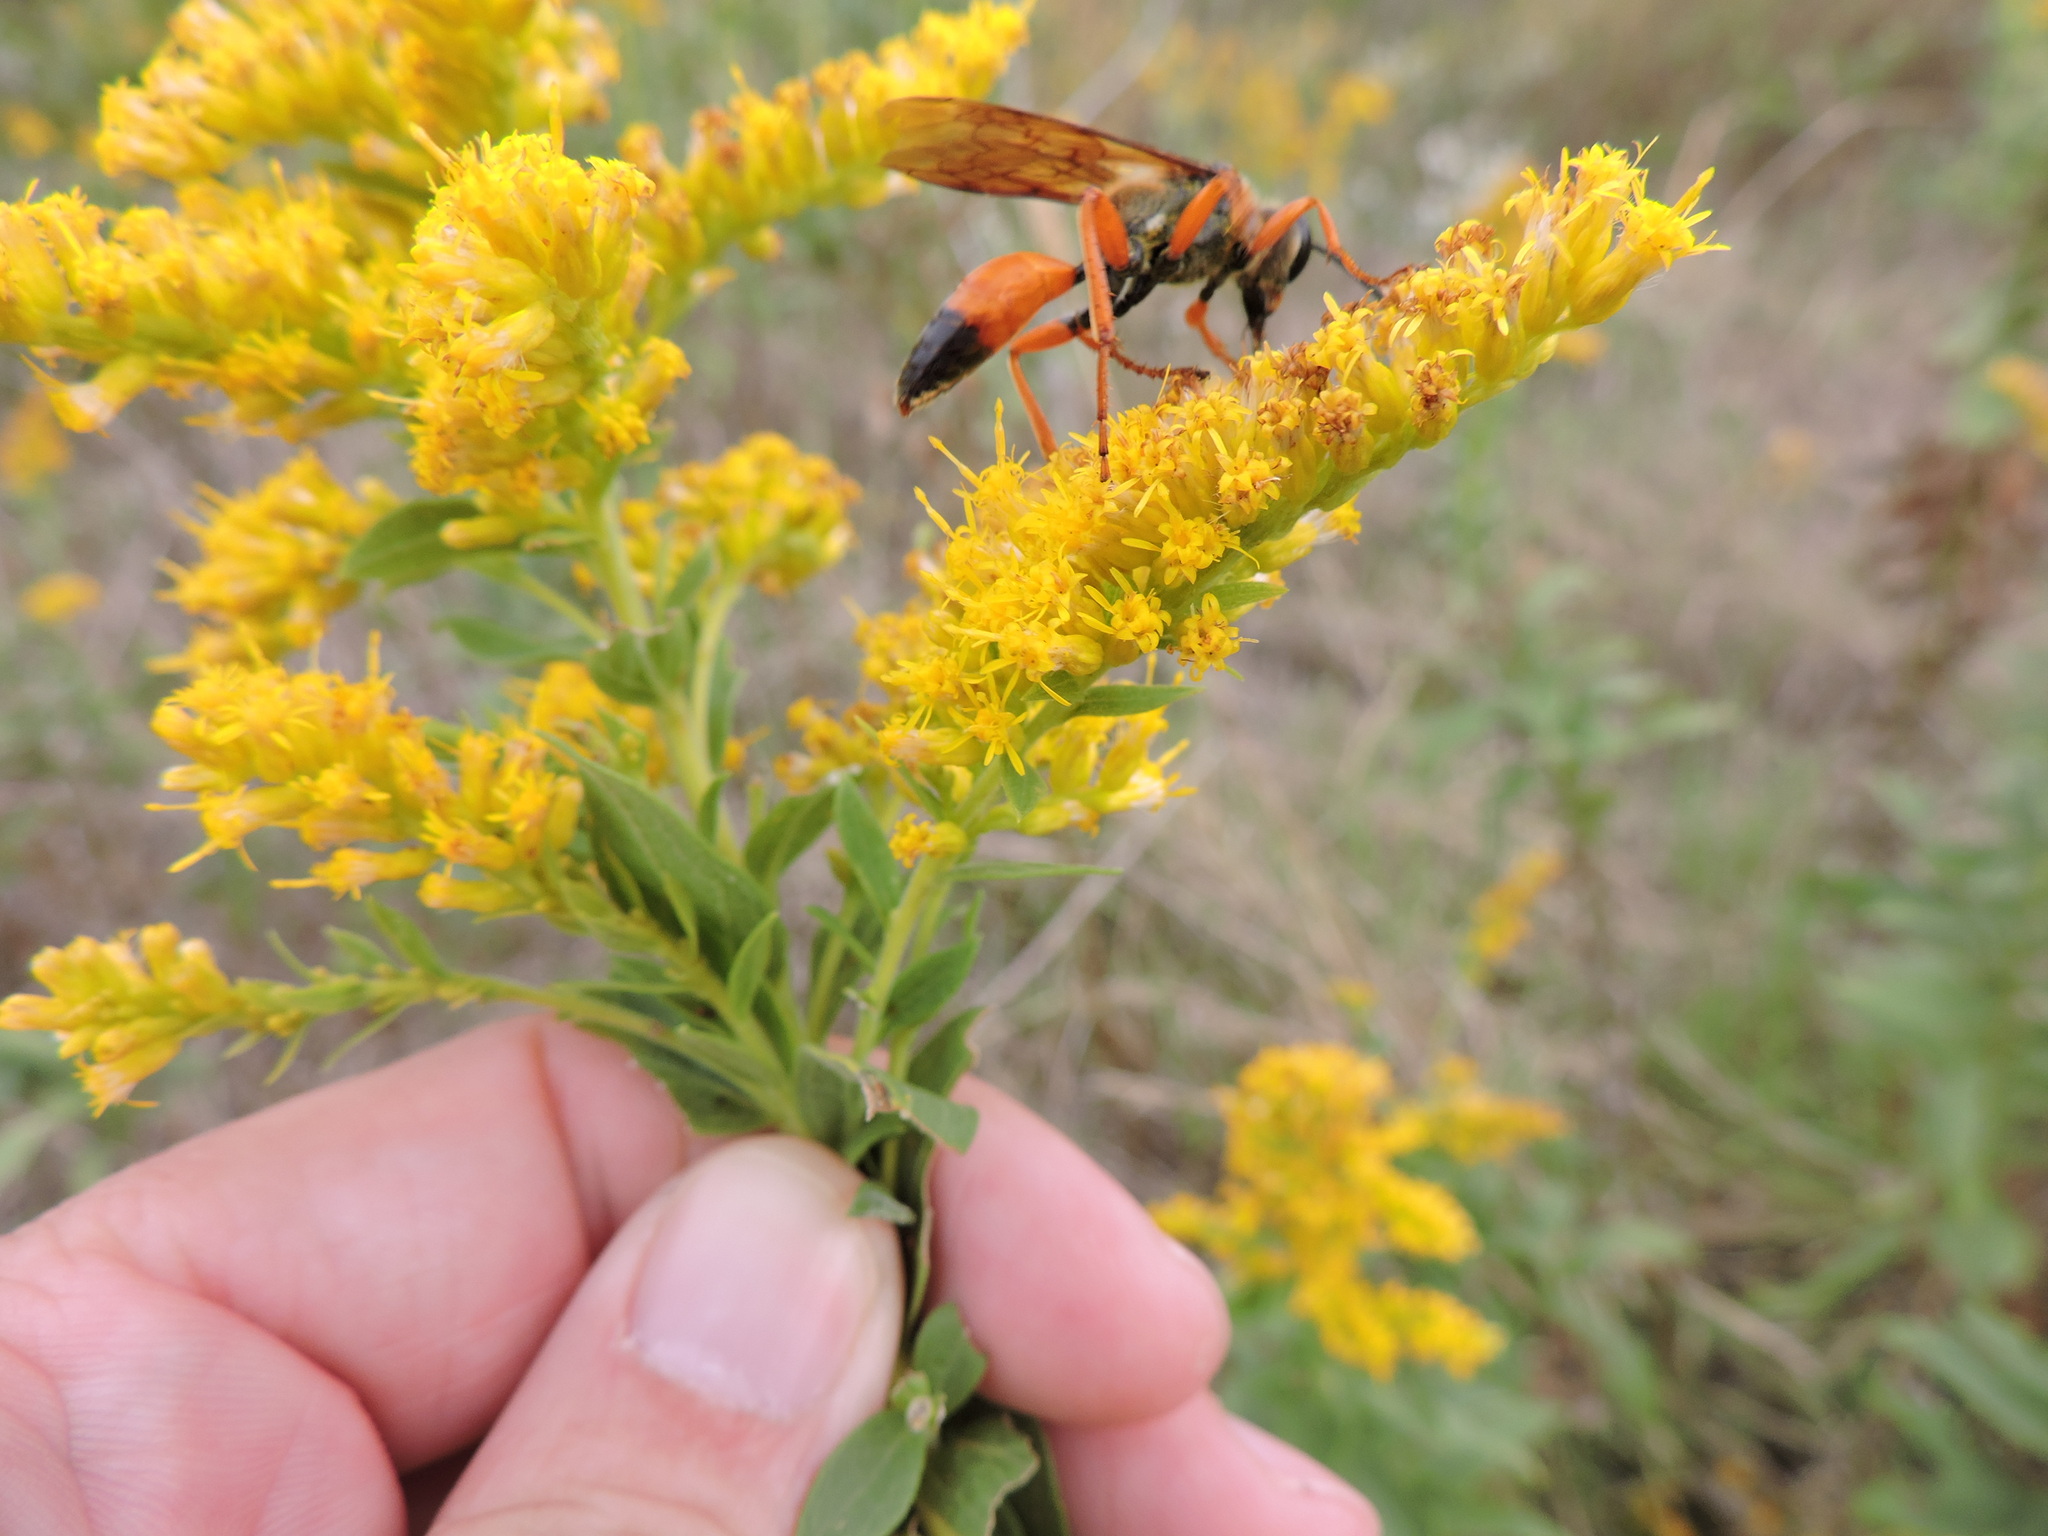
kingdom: Animalia
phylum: Arthropoda
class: Insecta
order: Hymenoptera
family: Sphecidae
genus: Sphex
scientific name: Sphex ichneumoneus
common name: Great golden digger wasp
